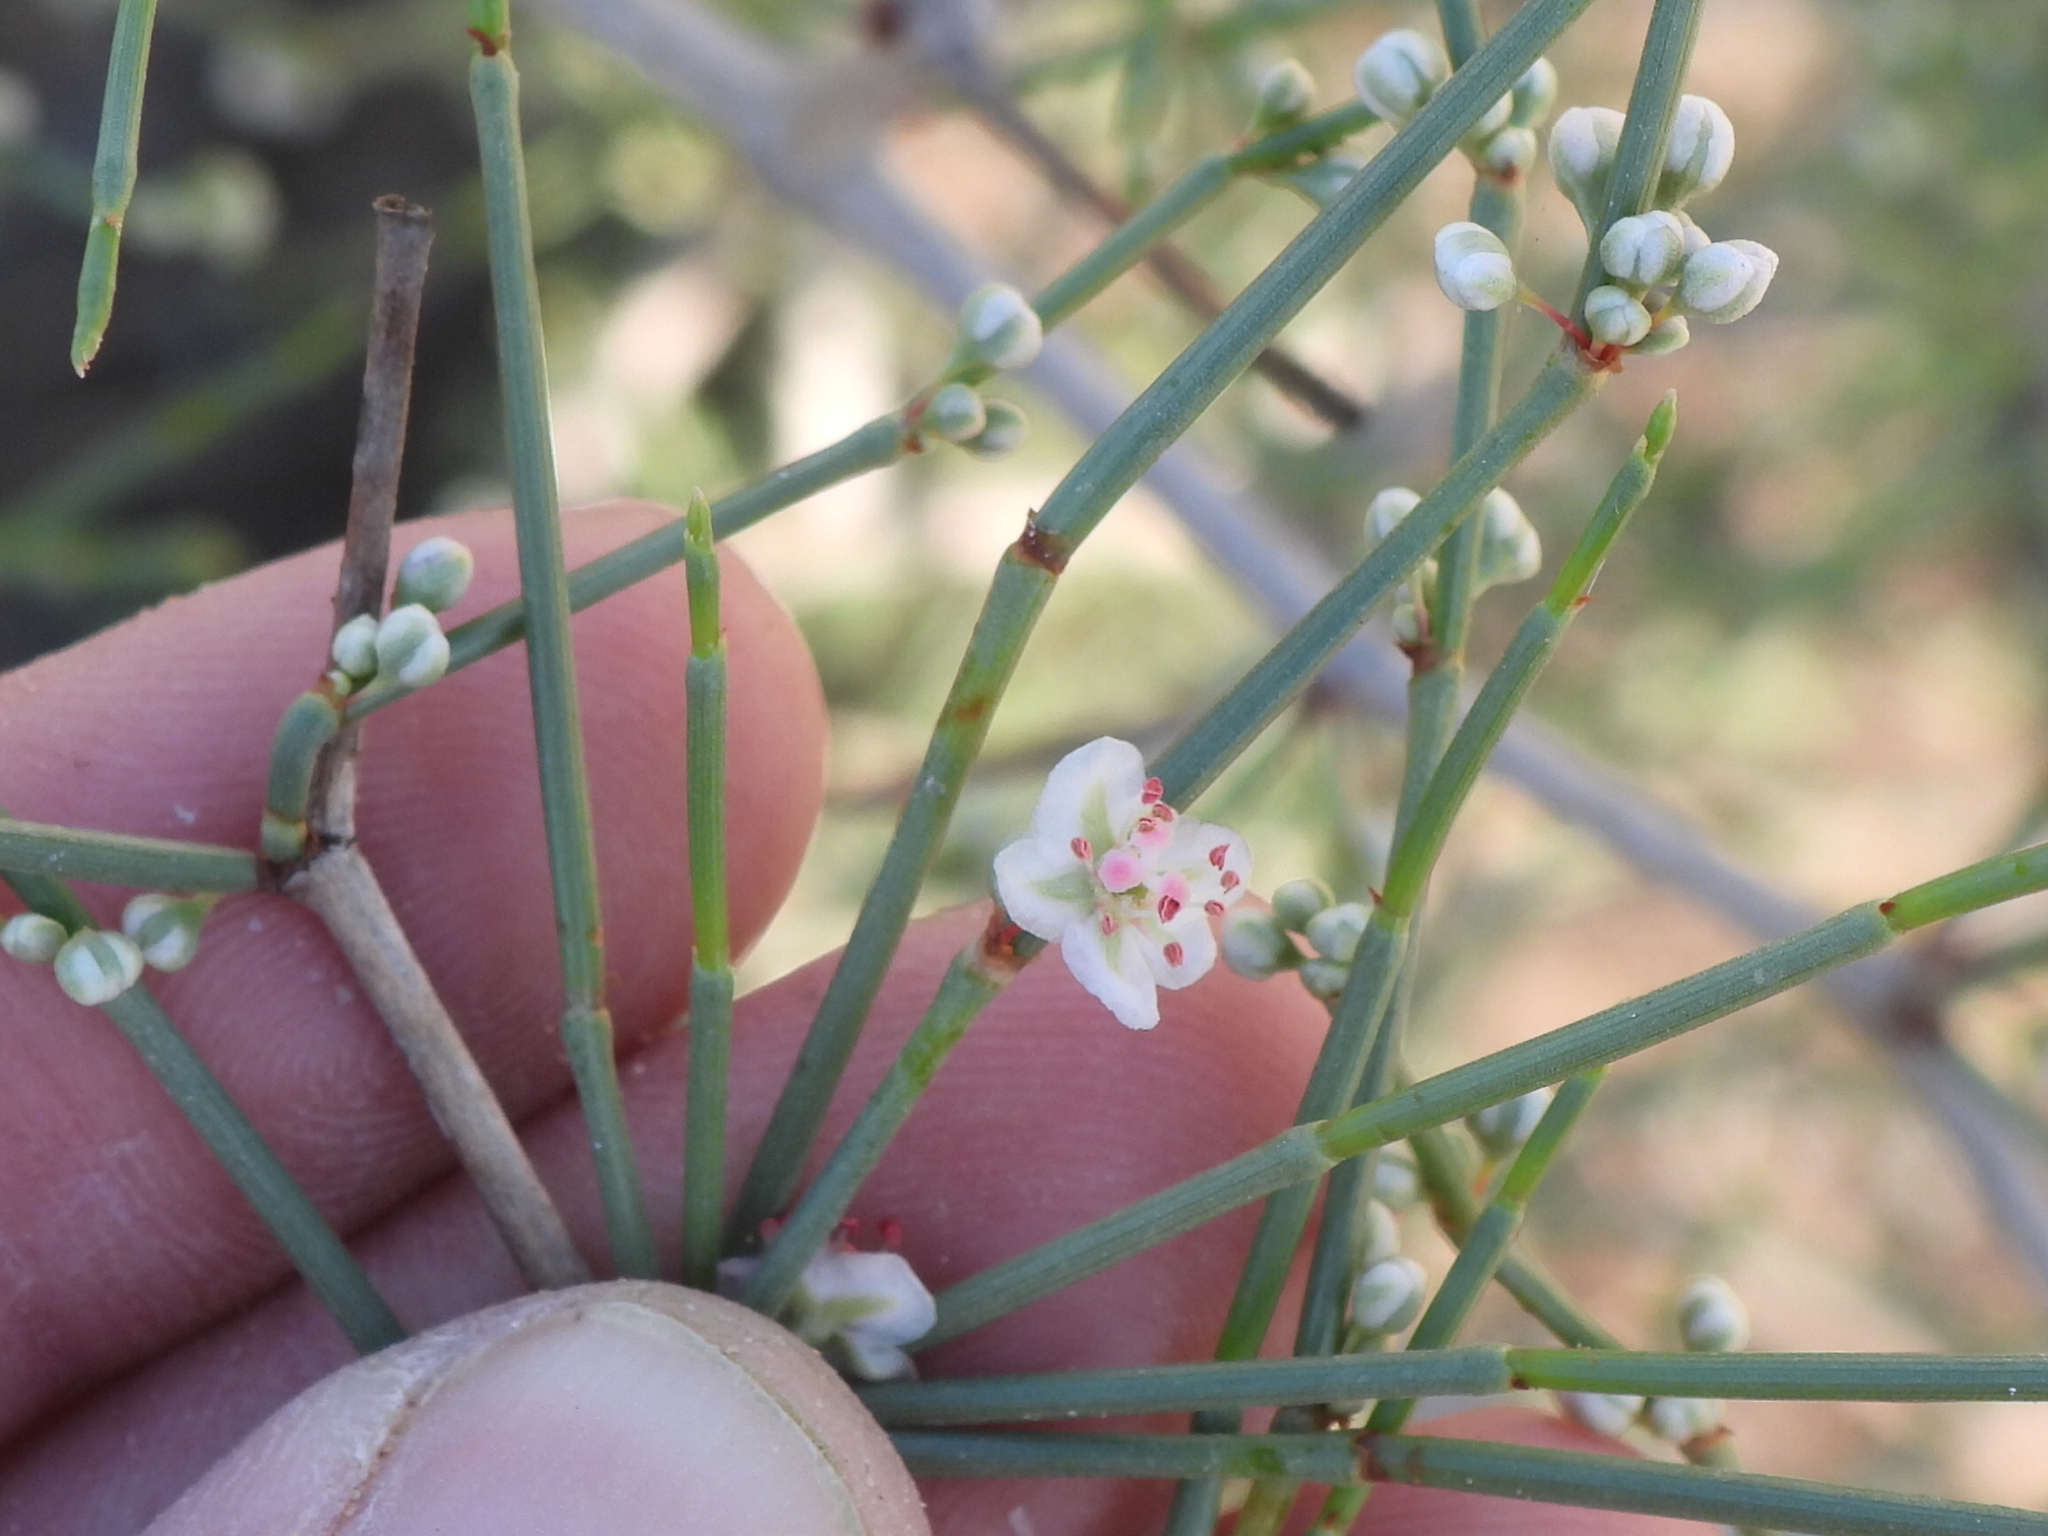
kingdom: Plantae
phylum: Tracheophyta
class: Magnoliopsida
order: Caryophyllales
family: Polygonaceae
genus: Calligonum
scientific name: Calligonum comosum
